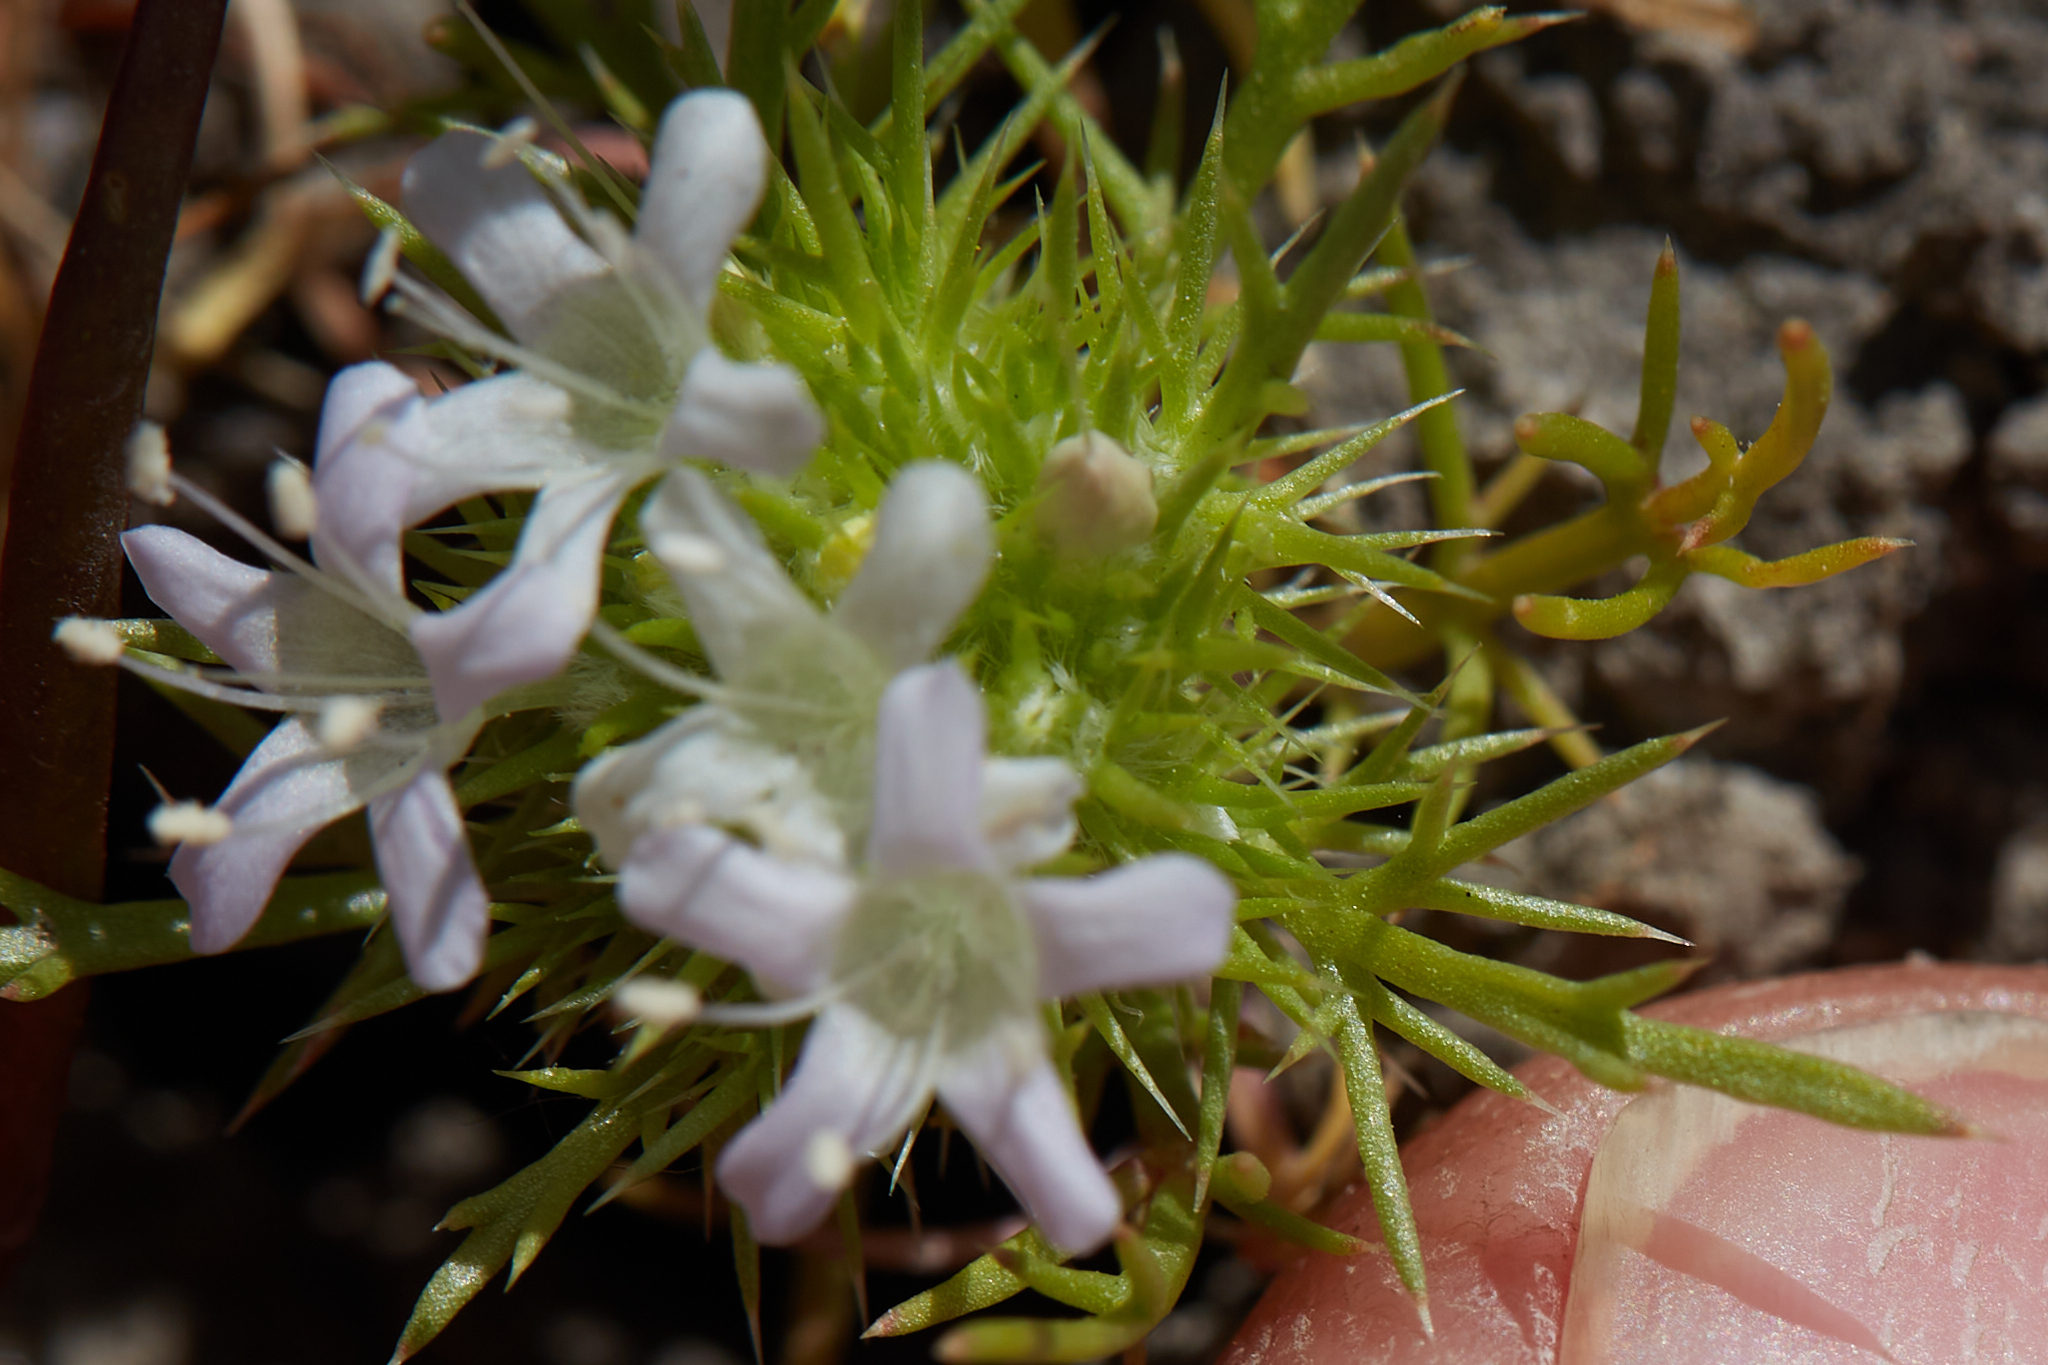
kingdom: Plantae
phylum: Tracheophyta
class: Magnoliopsida
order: Ericales
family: Polemoniaceae
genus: Navarretia
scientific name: Navarretia leucocephala
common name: White-flowered navarretia
